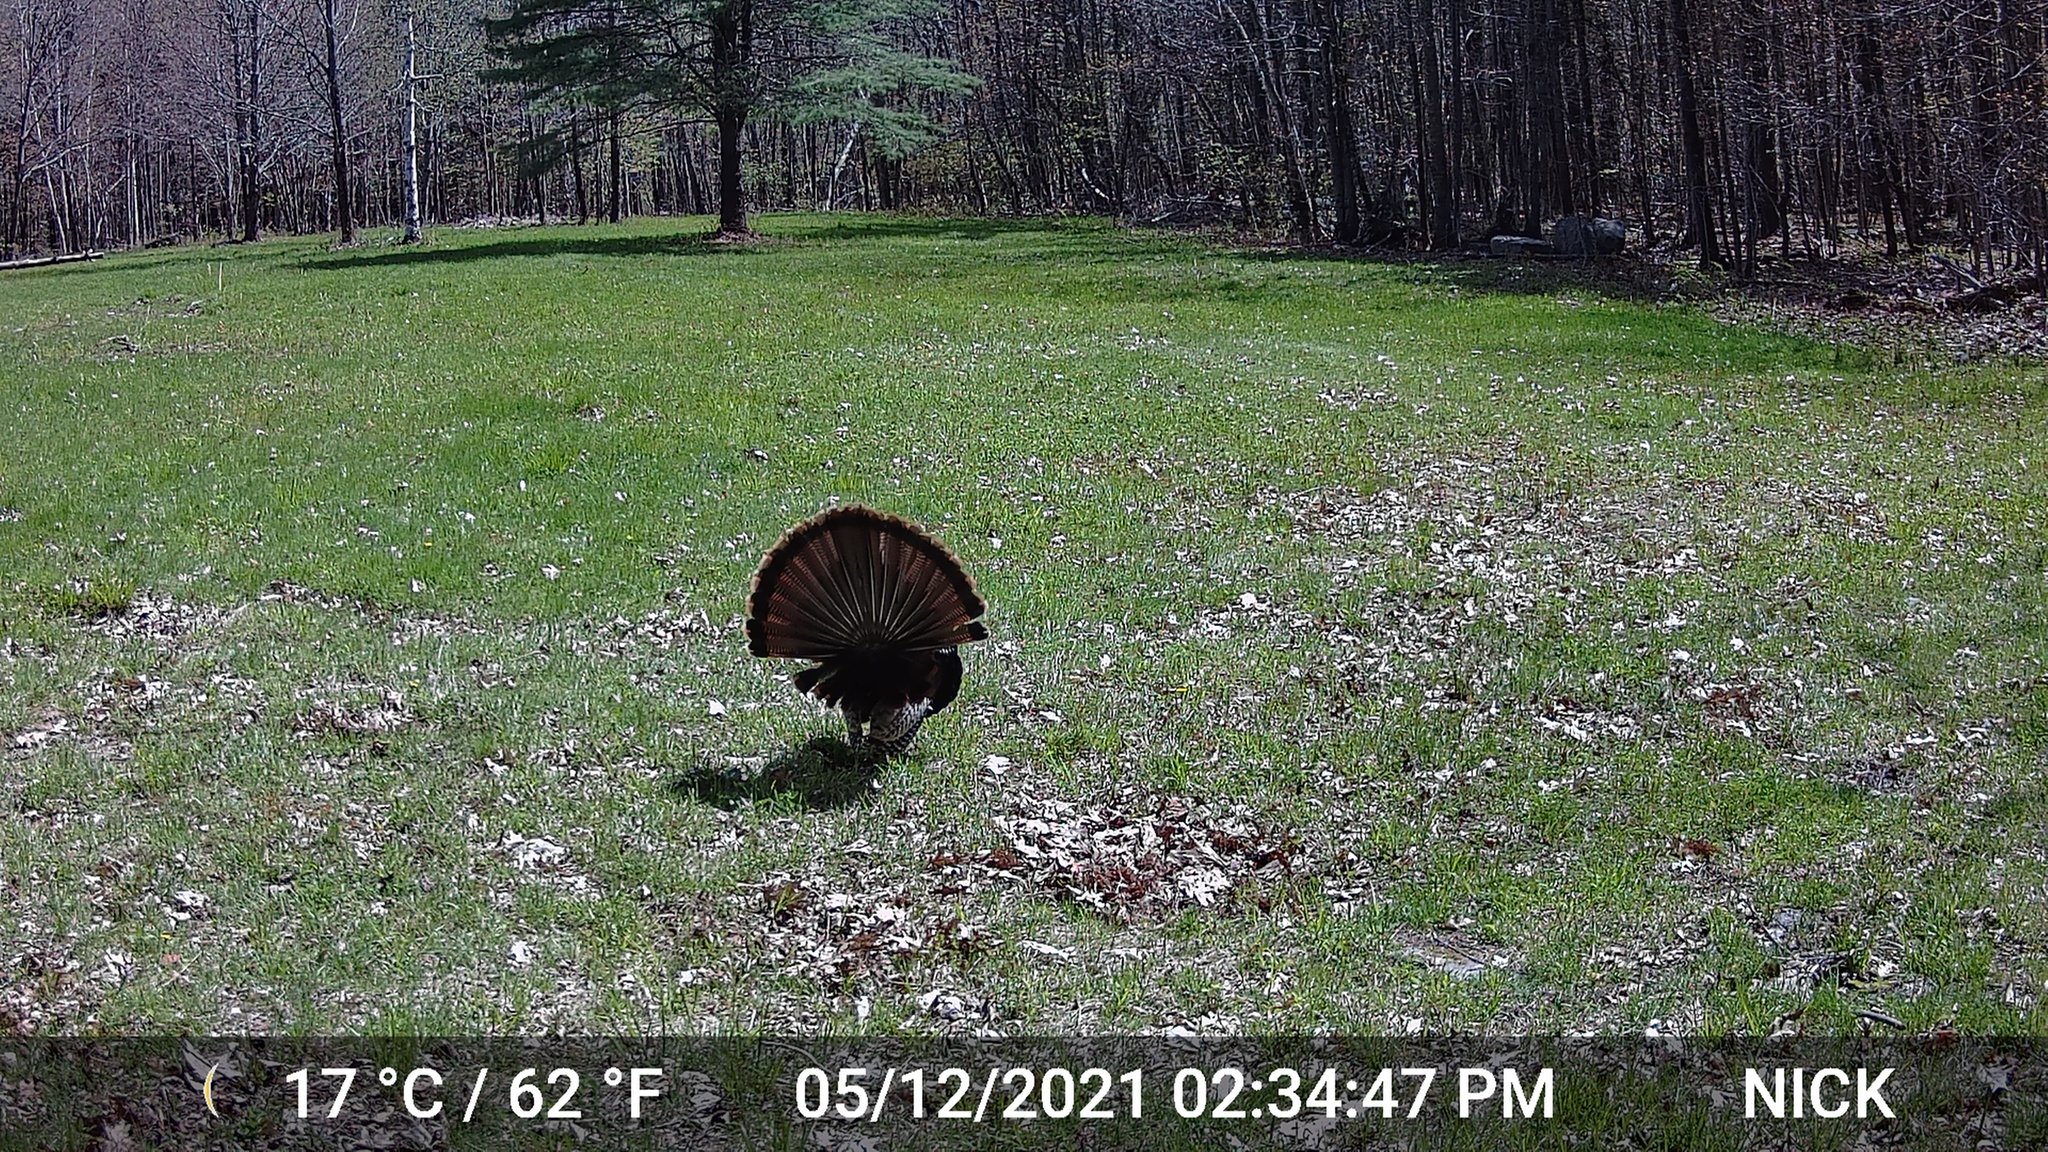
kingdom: Animalia
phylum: Chordata
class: Aves
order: Galliformes
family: Phasianidae
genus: Meleagris
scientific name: Meleagris gallopavo
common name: Wild turkey
